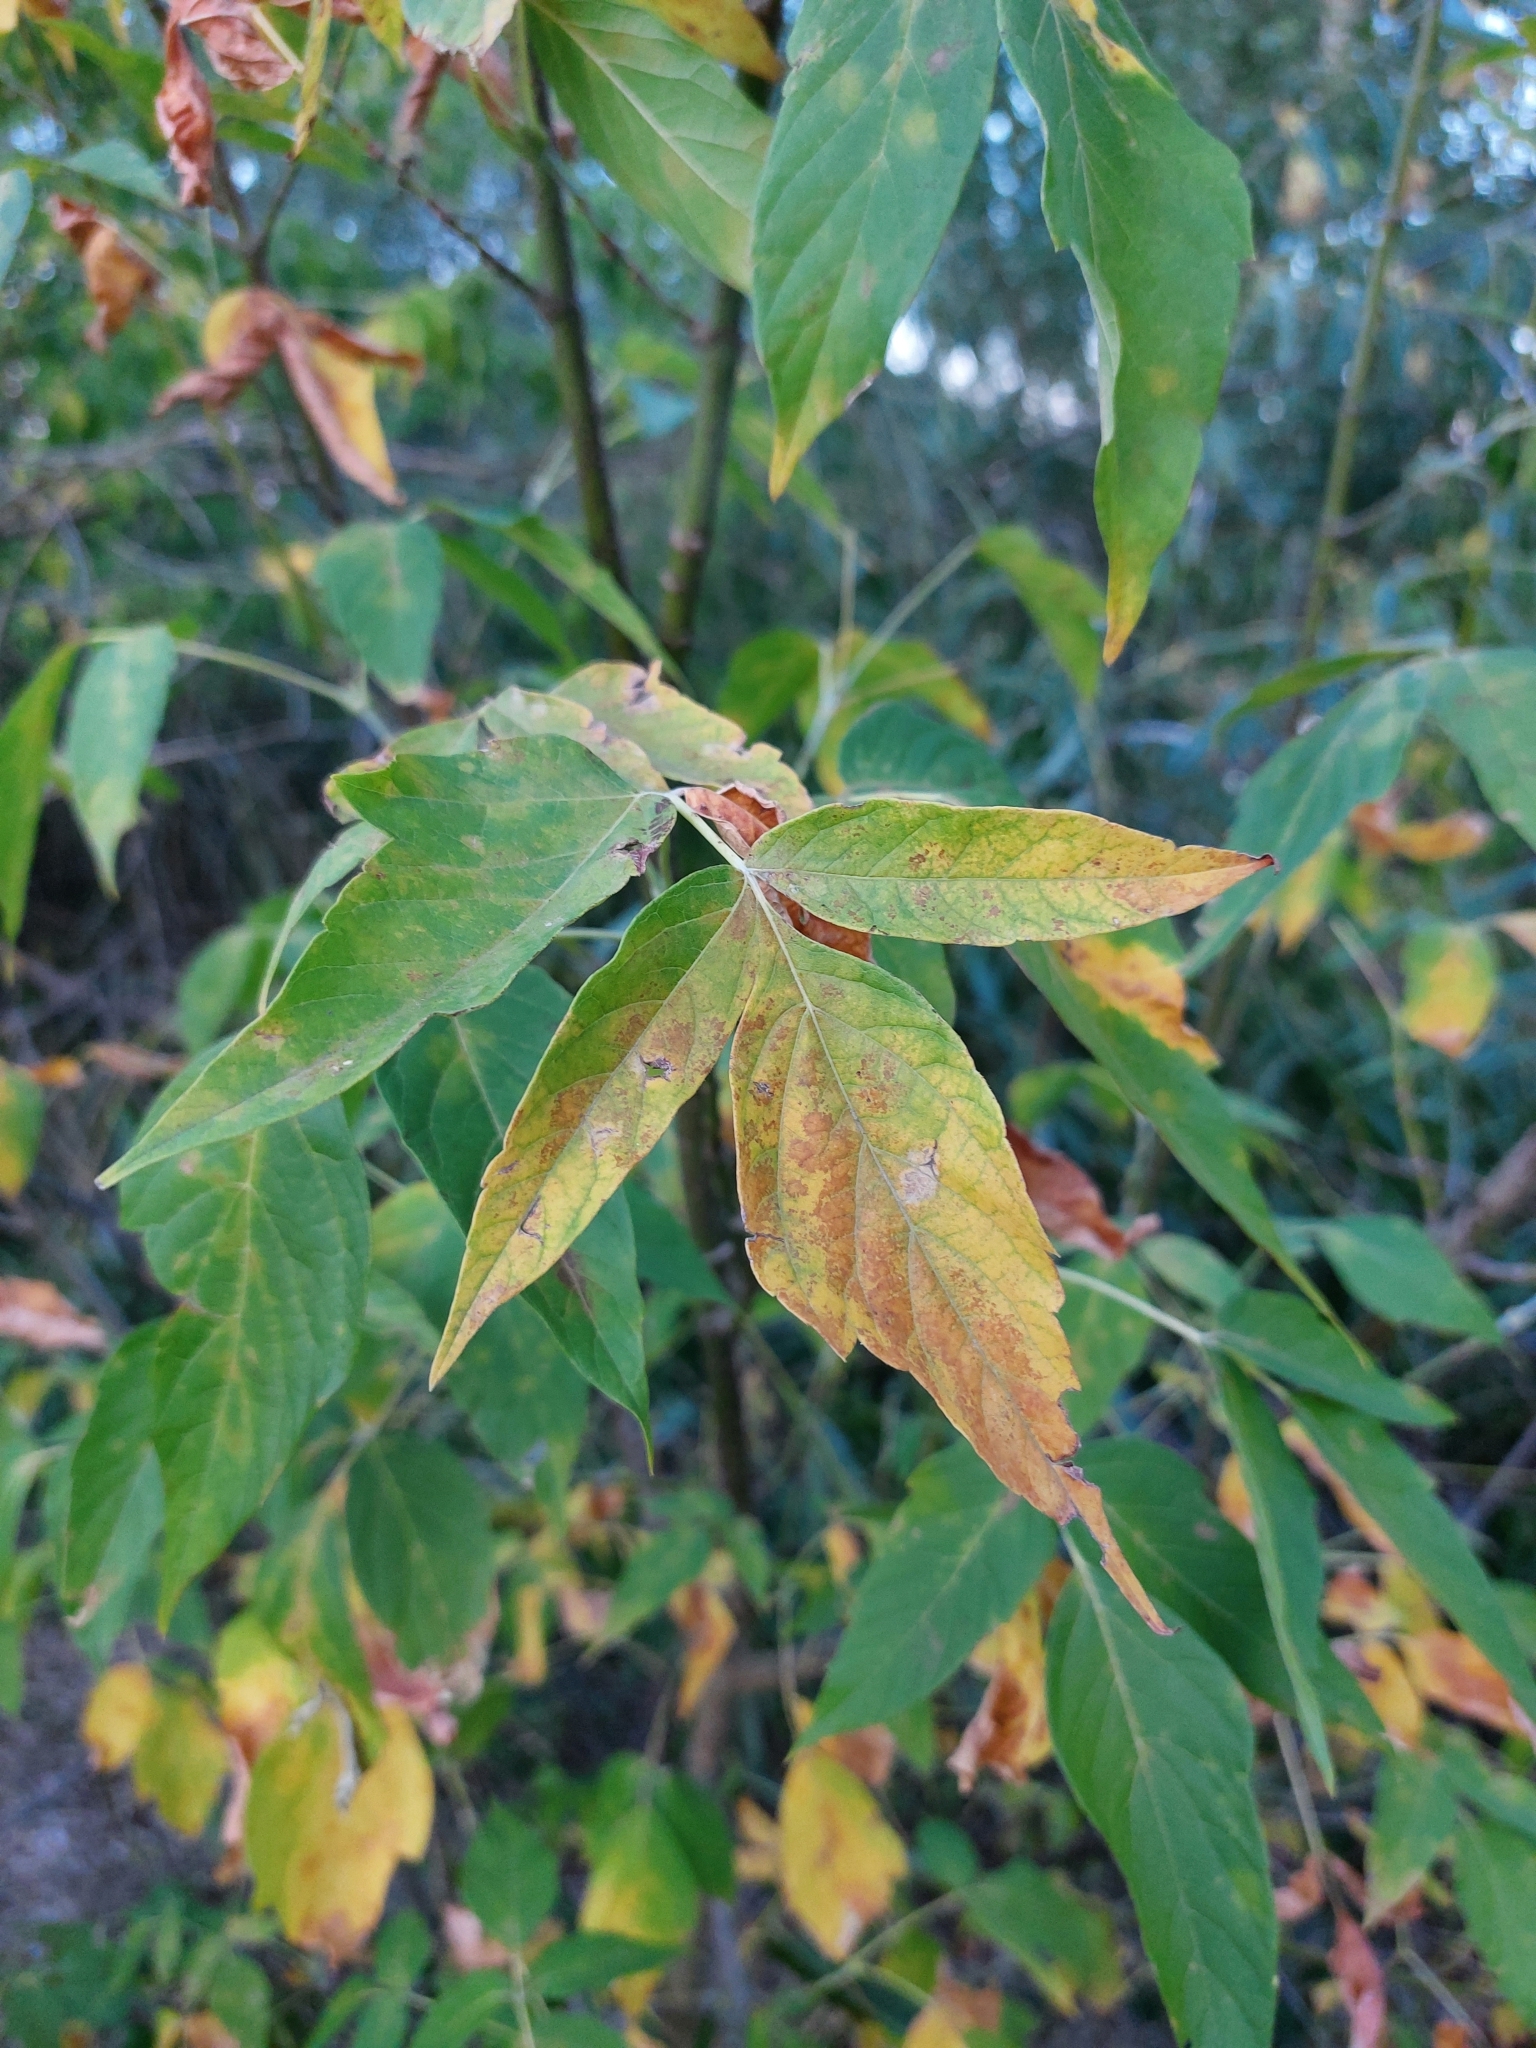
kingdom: Plantae
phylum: Tracheophyta
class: Magnoliopsida
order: Sapindales
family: Sapindaceae
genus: Acer
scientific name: Acer negundo
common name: Ashleaf maple
